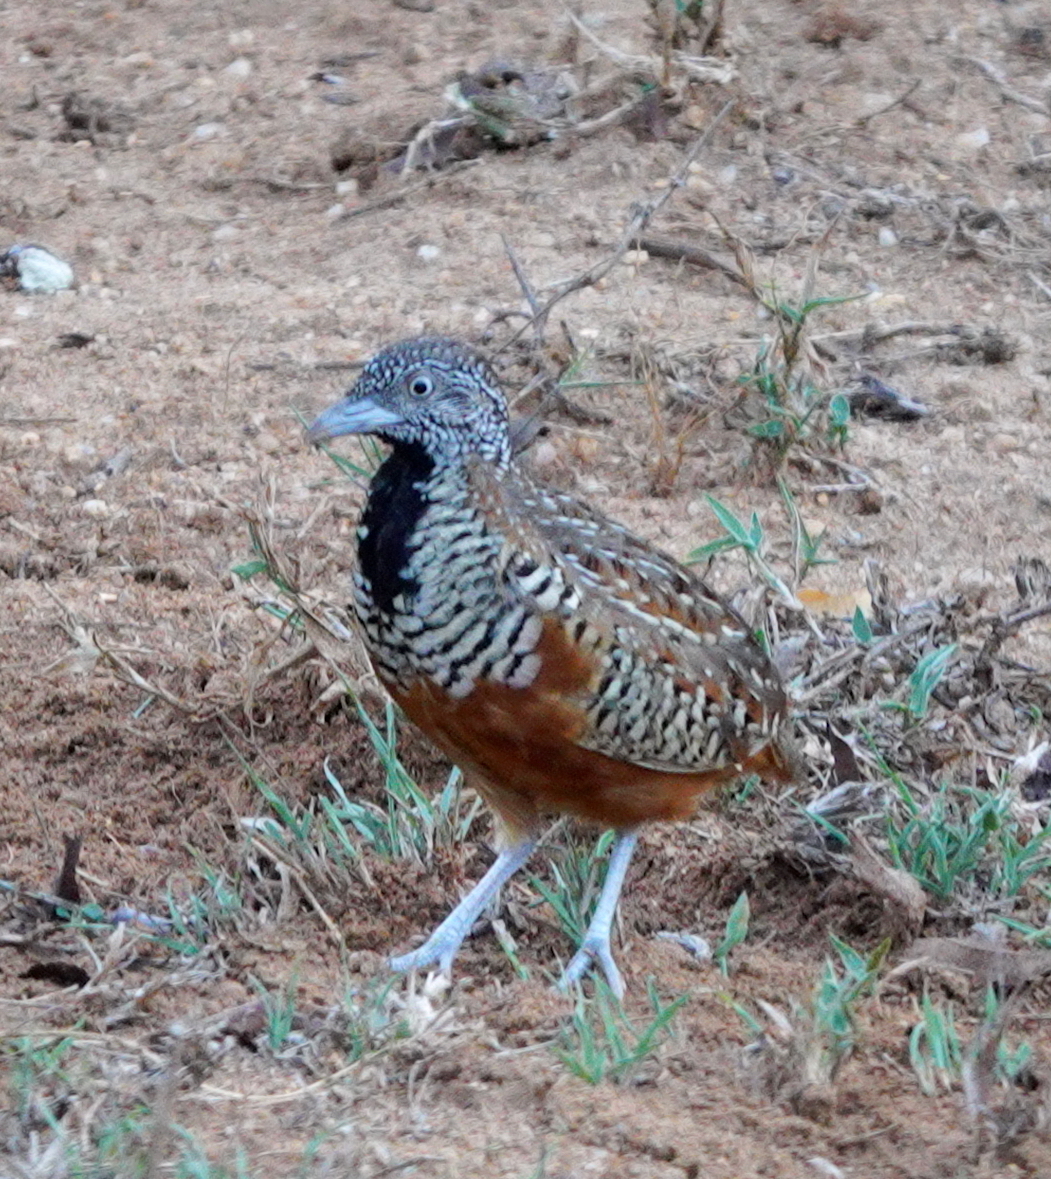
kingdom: Animalia
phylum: Chordata
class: Aves
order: Charadriiformes
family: Turnicidae
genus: Turnix
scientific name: Turnix suscitator
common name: Barred buttonquail
